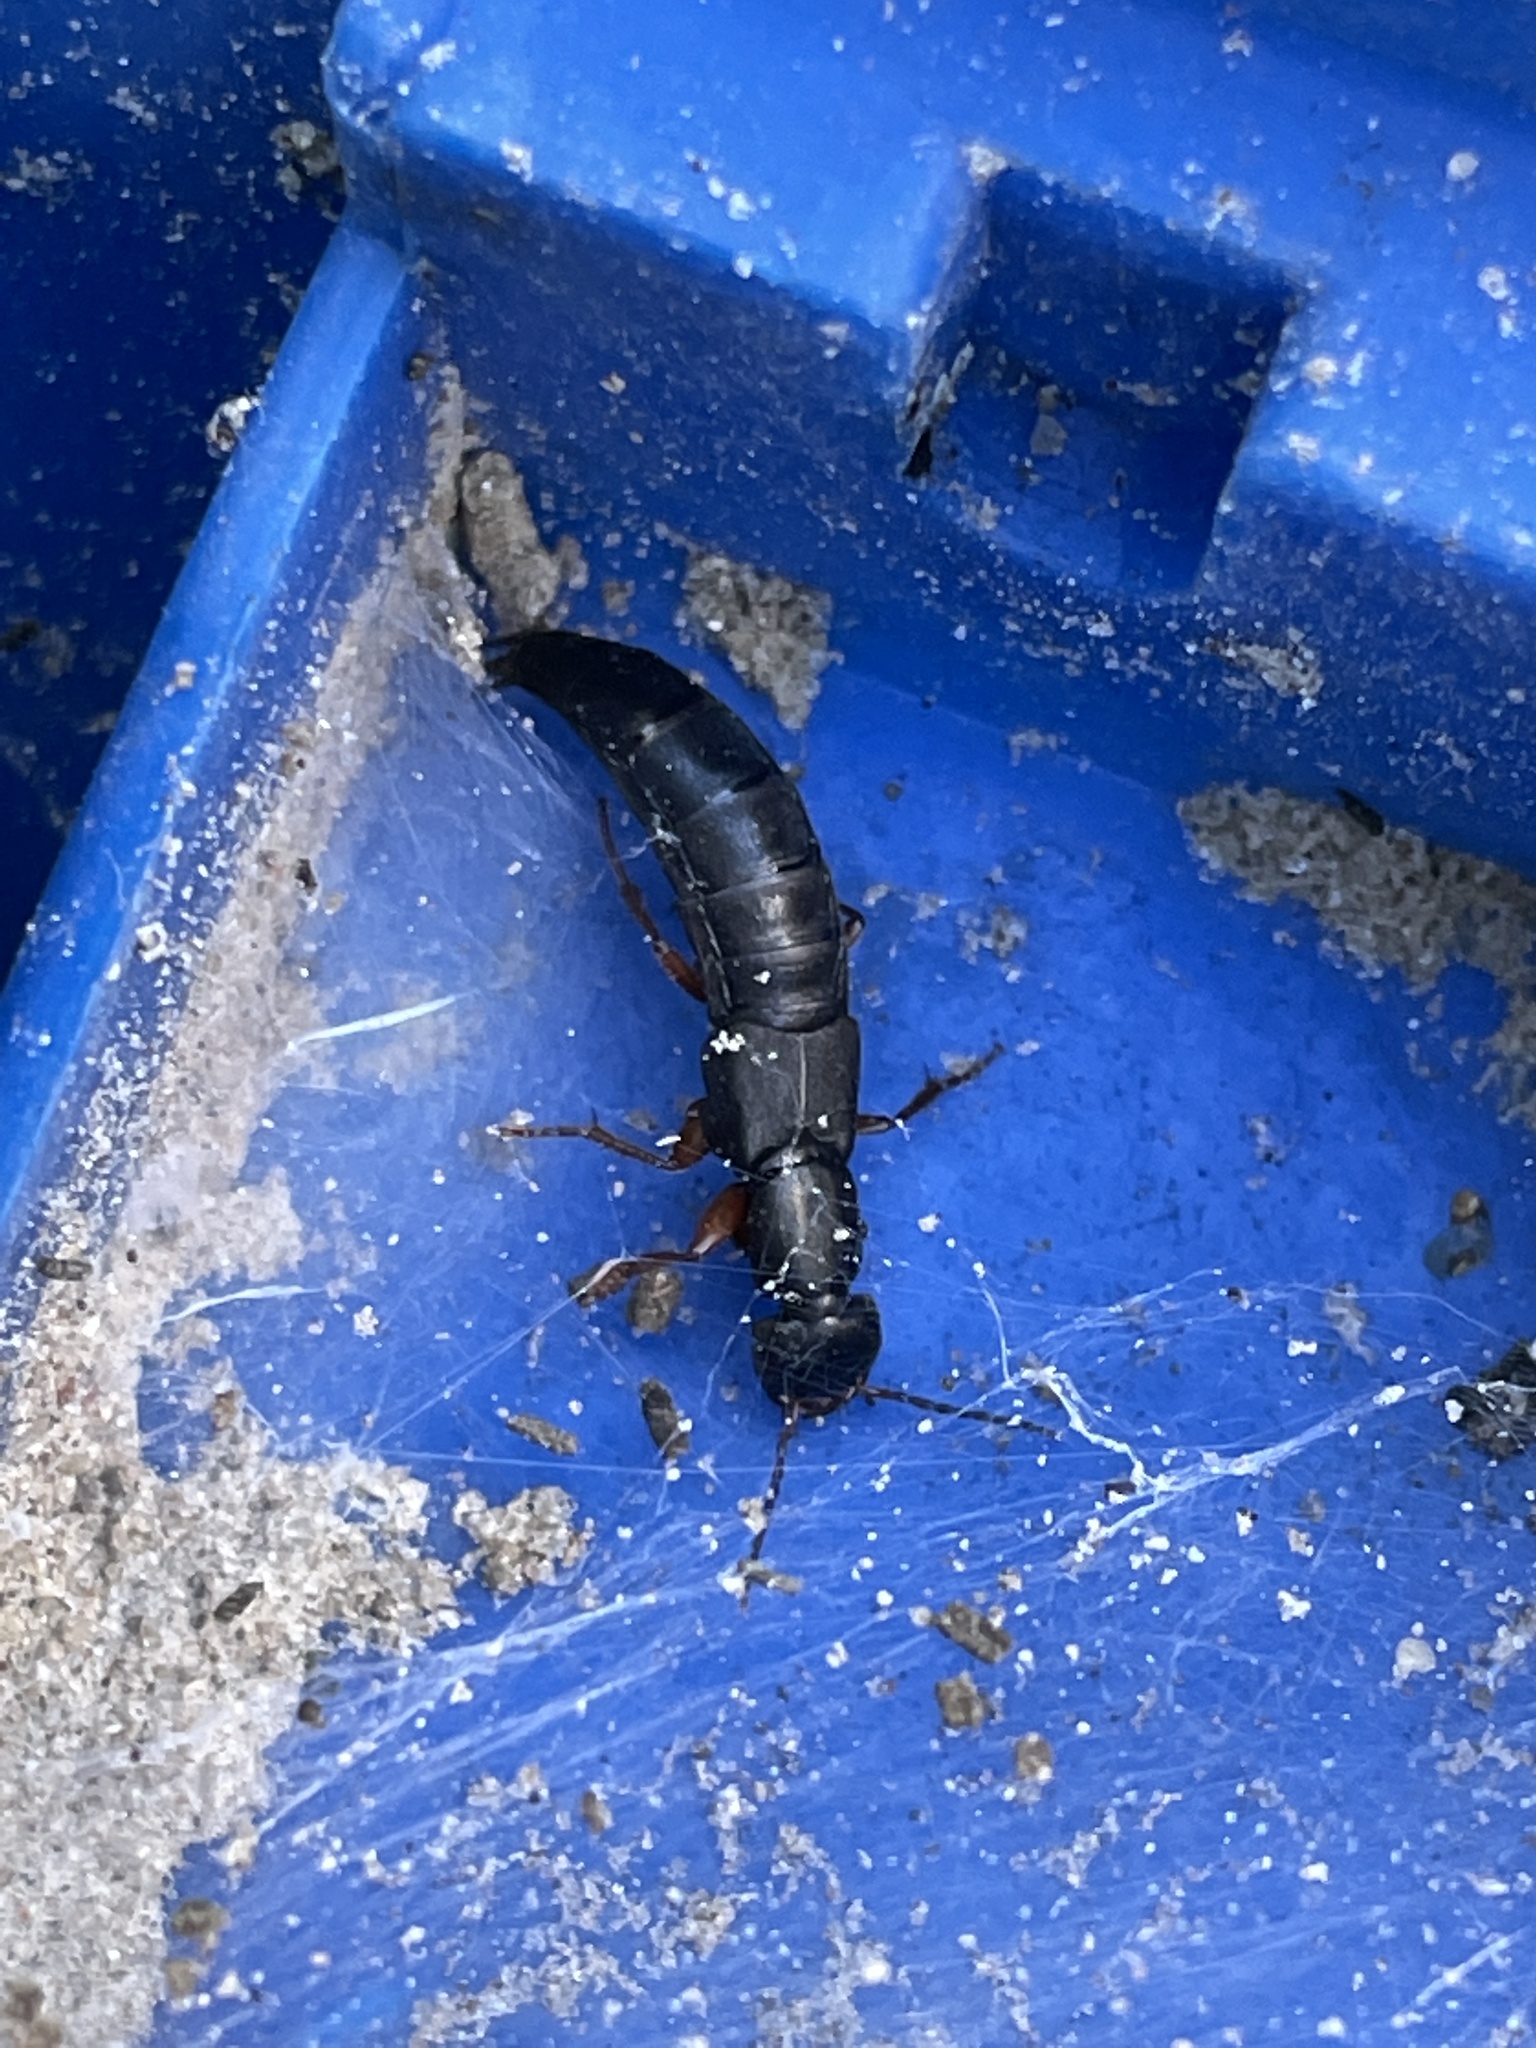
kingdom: Animalia
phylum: Arthropoda
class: Insecta
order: Coleoptera
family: Staphylinidae
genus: Tasgius
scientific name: Tasgius morsitans
